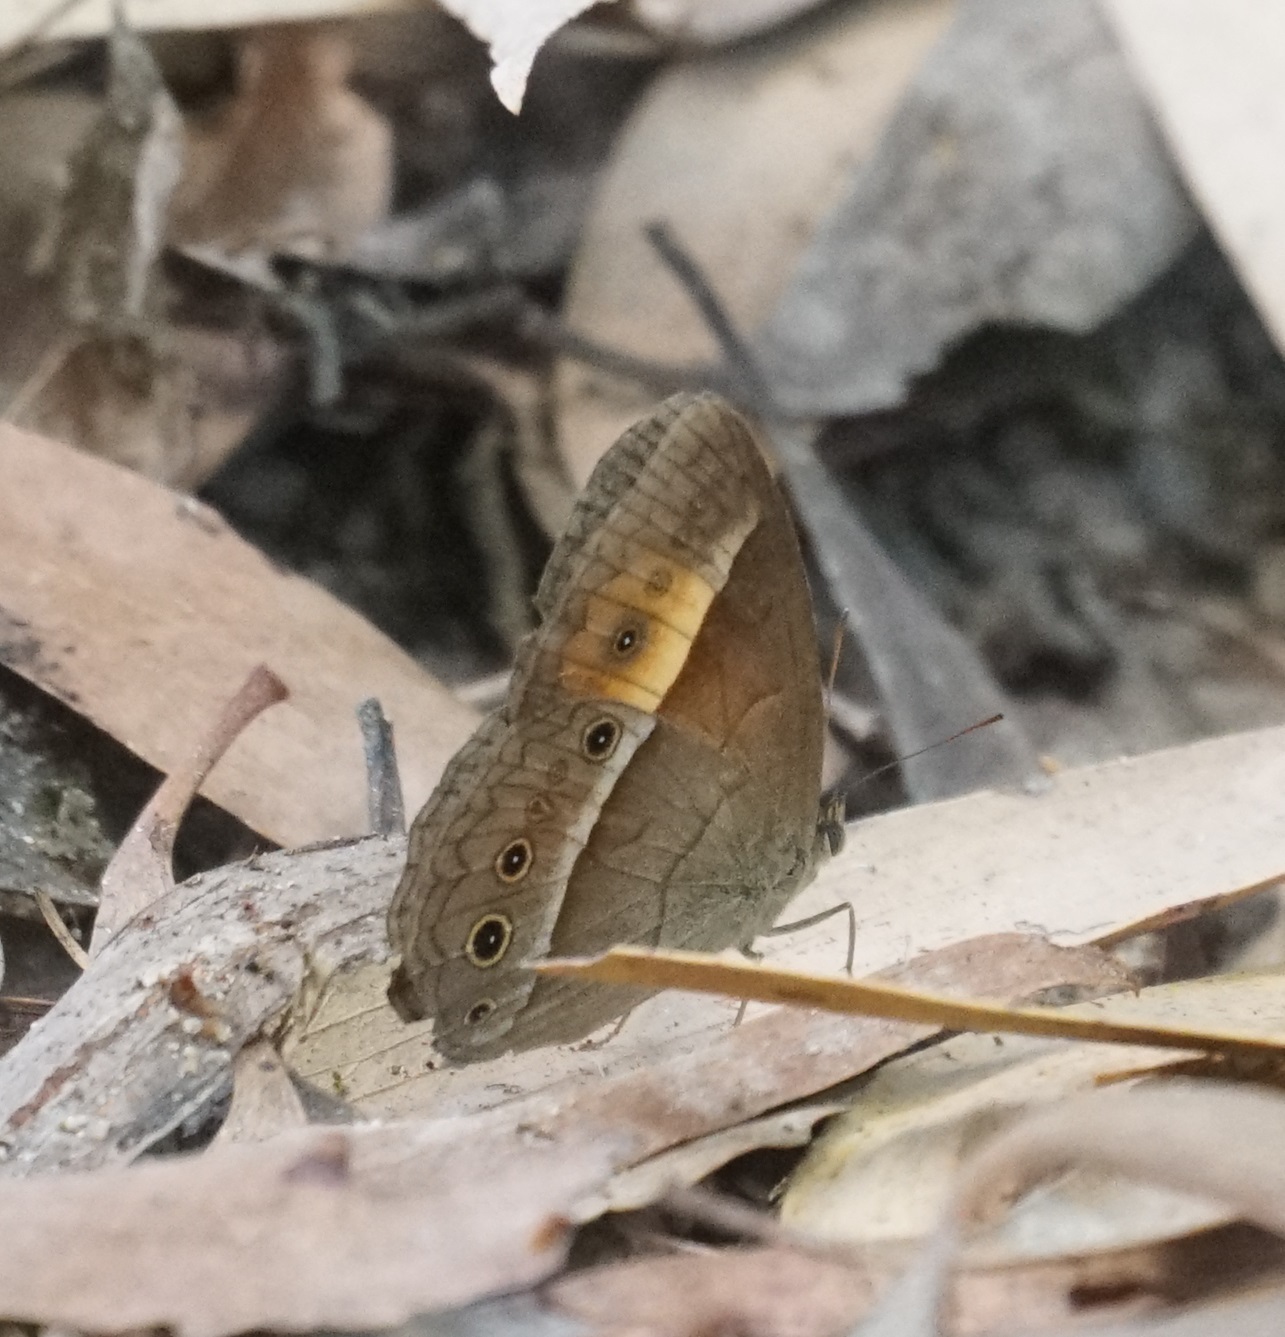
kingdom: Animalia
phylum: Arthropoda
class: Insecta
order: Lepidoptera
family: Nymphalidae
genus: Mycalesis
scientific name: Mycalesis terminus
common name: Orange bushbrown
